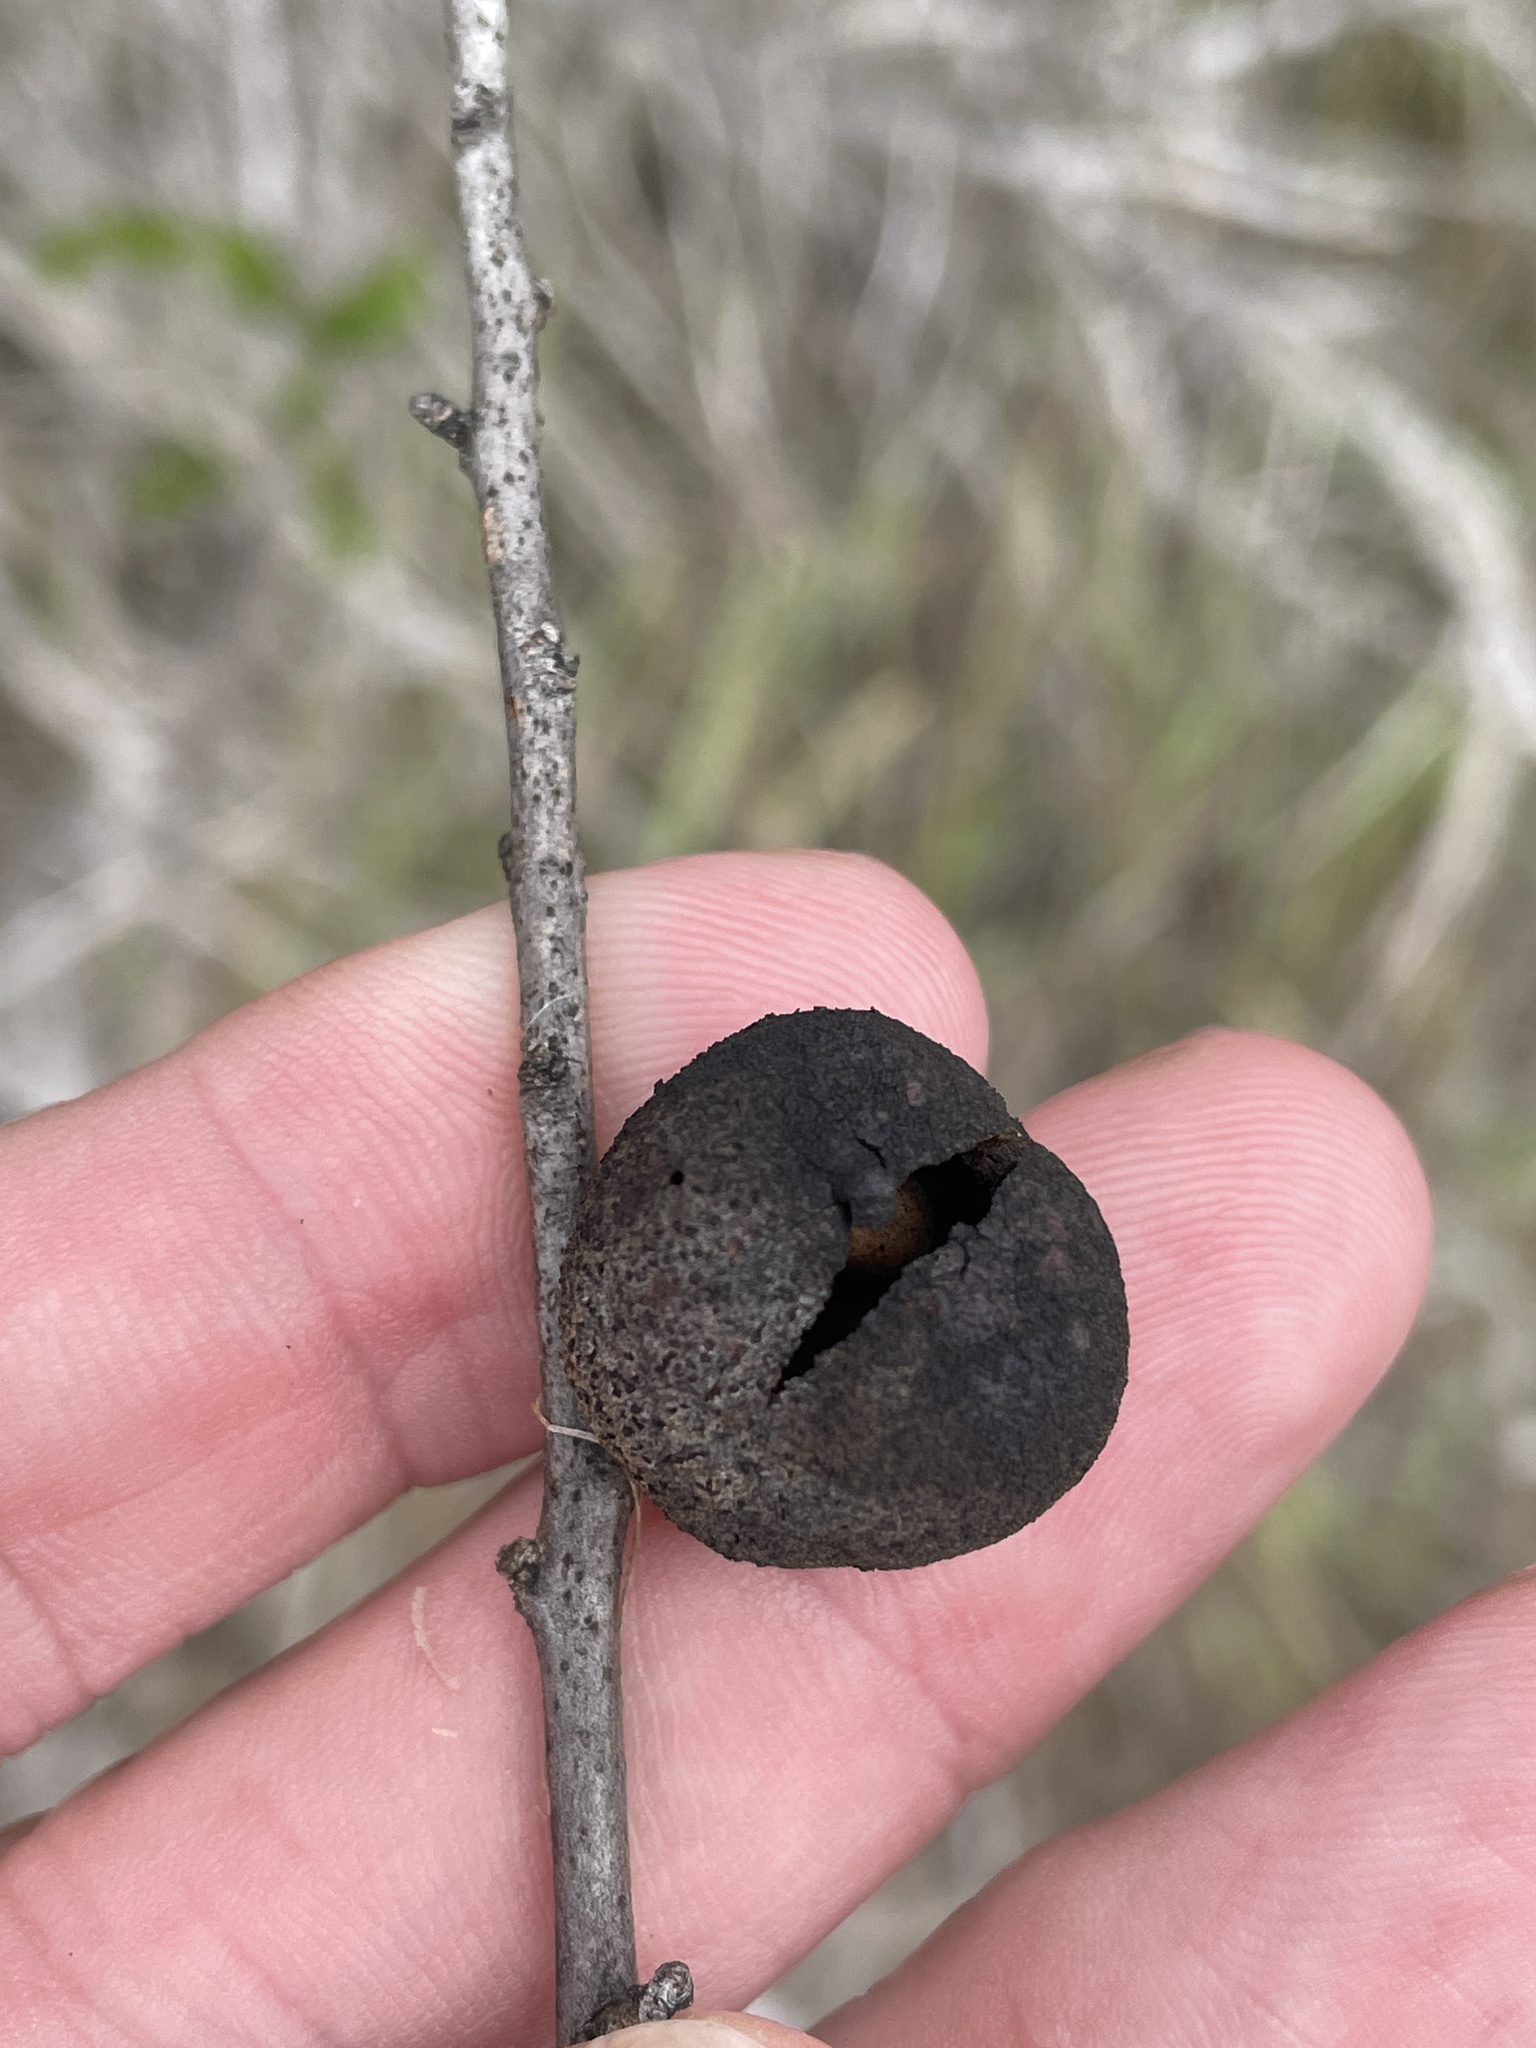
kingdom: Animalia
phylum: Arthropoda
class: Insecta
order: Hymenoptera
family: Cynipidae
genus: Disholcaspis
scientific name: Disholcaspis
